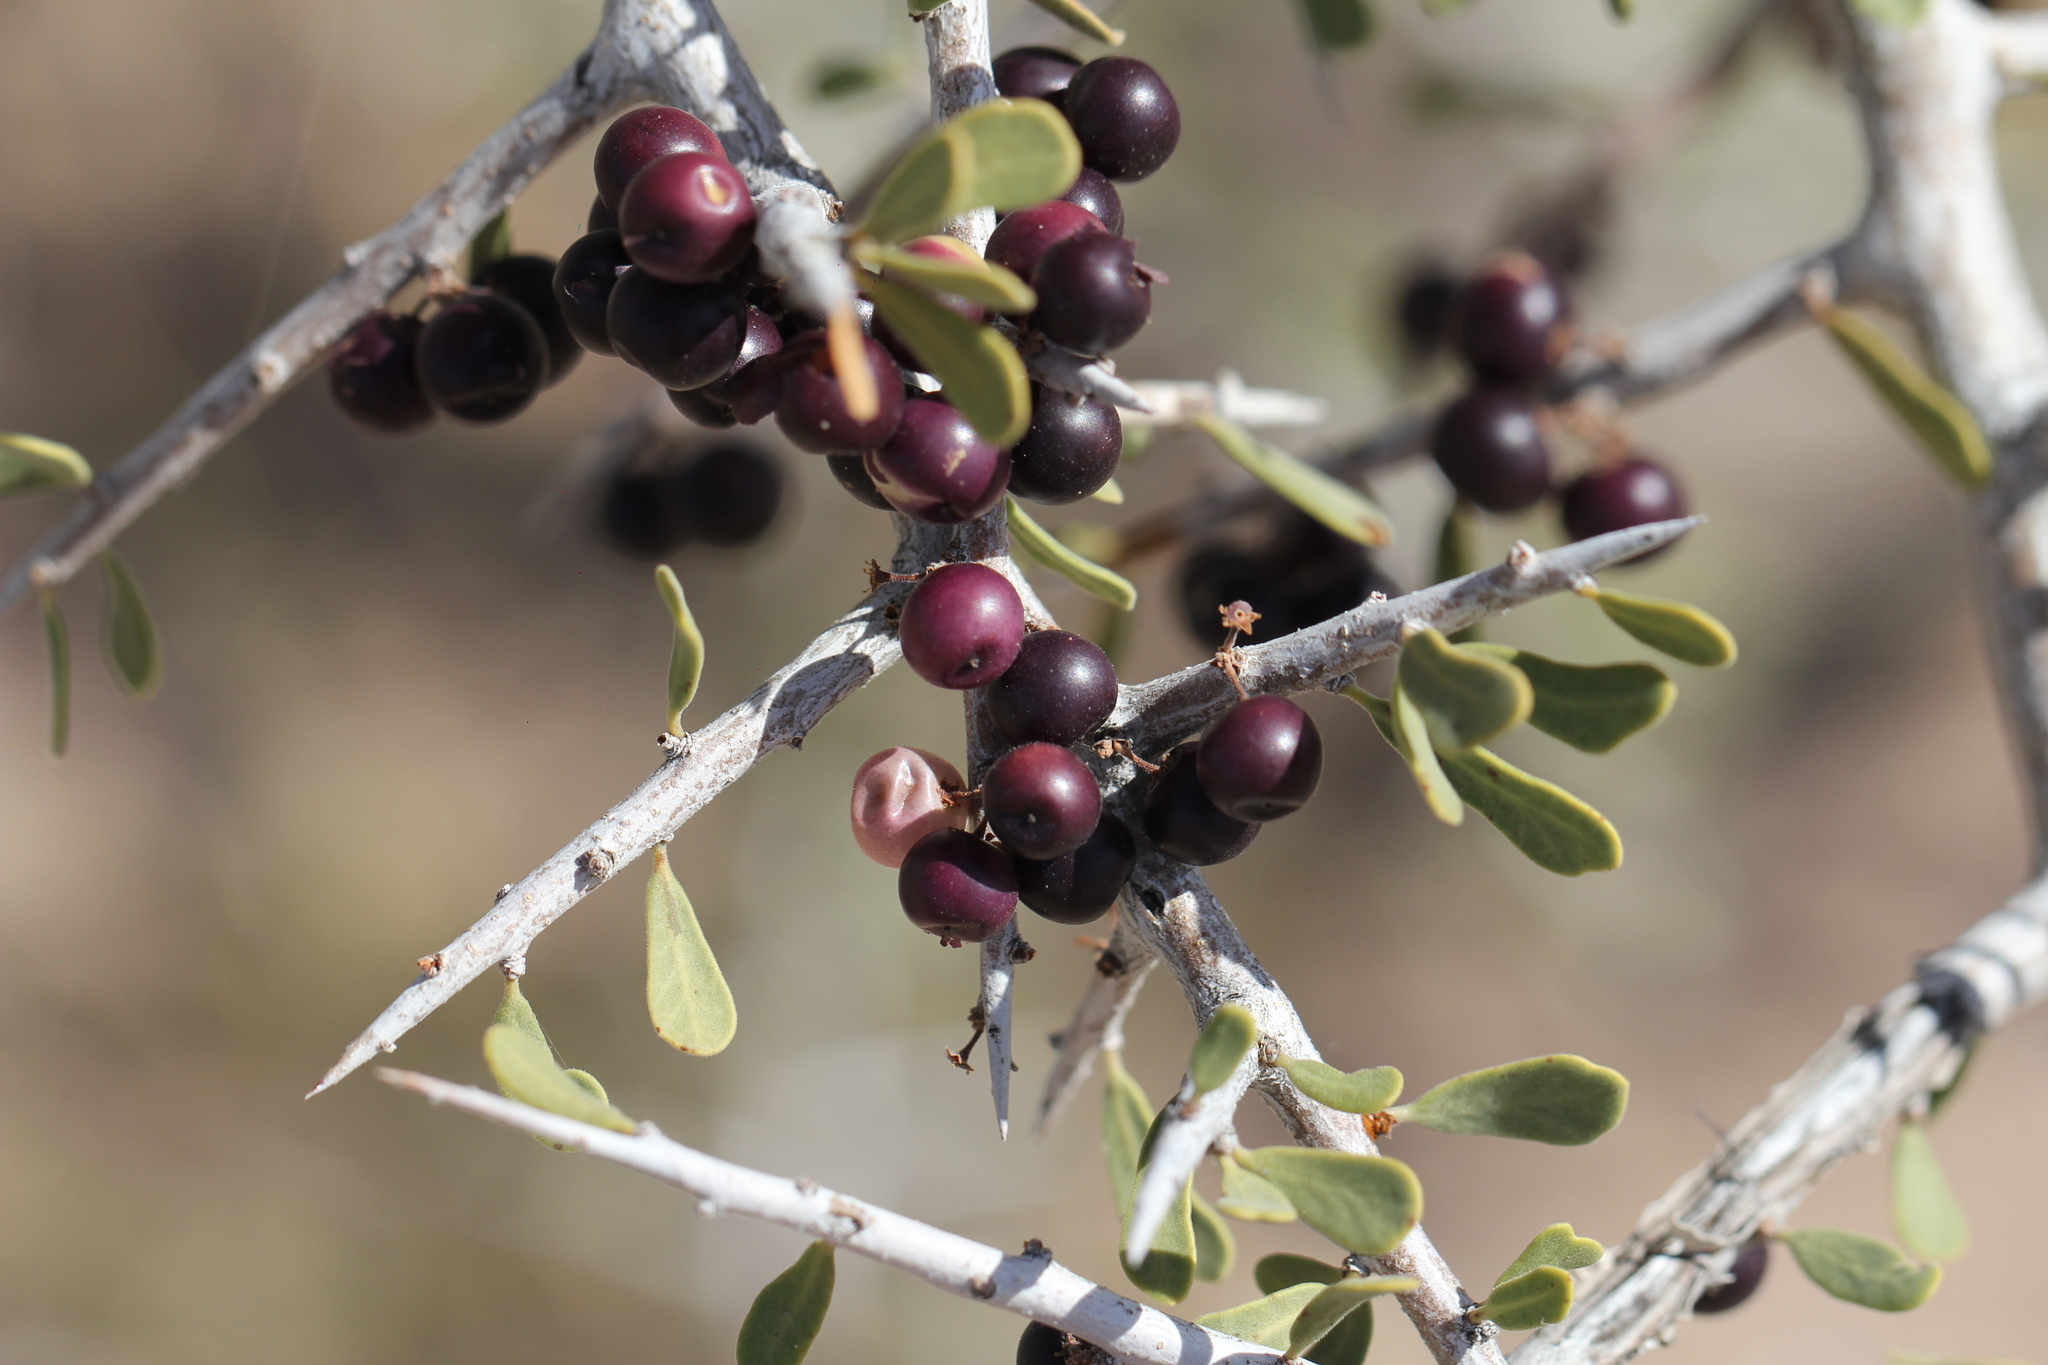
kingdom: Plantae
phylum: Tracheophyta
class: Magnoliopsida
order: Sapindales
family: Anacardiaceae
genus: Schinus
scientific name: Schinus johnstonii
